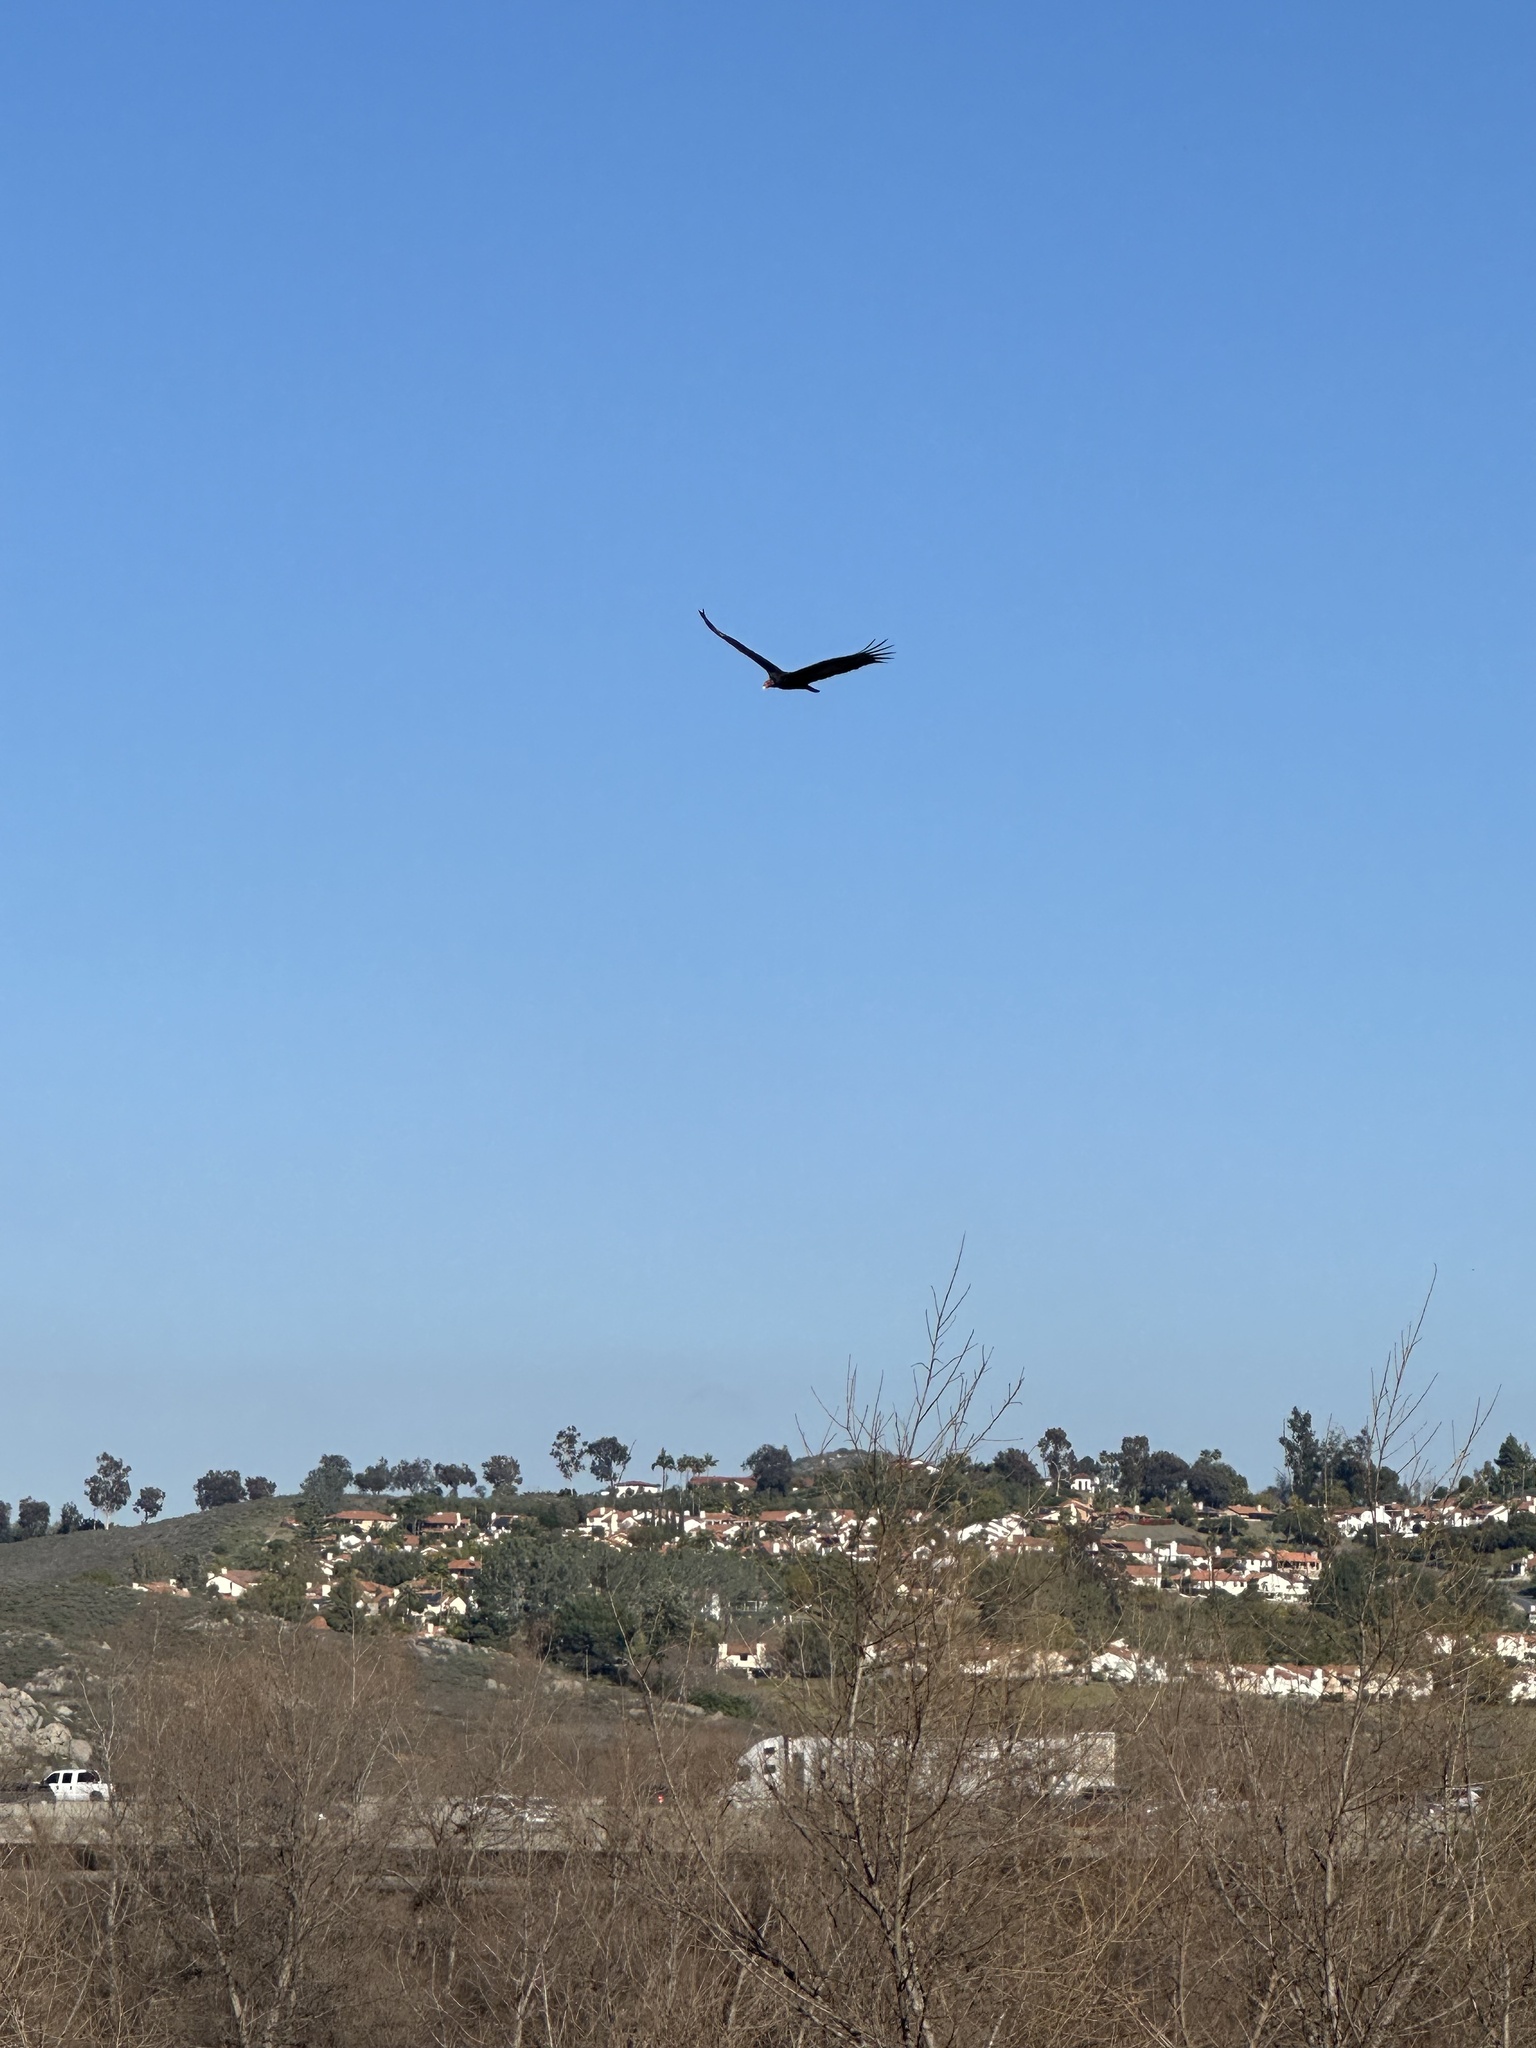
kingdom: Animalia
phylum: Chordata
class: Aves
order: Accipitriformes
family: Cathartidae
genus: Cathartes
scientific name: Cathartes aura
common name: Turkey vulture
